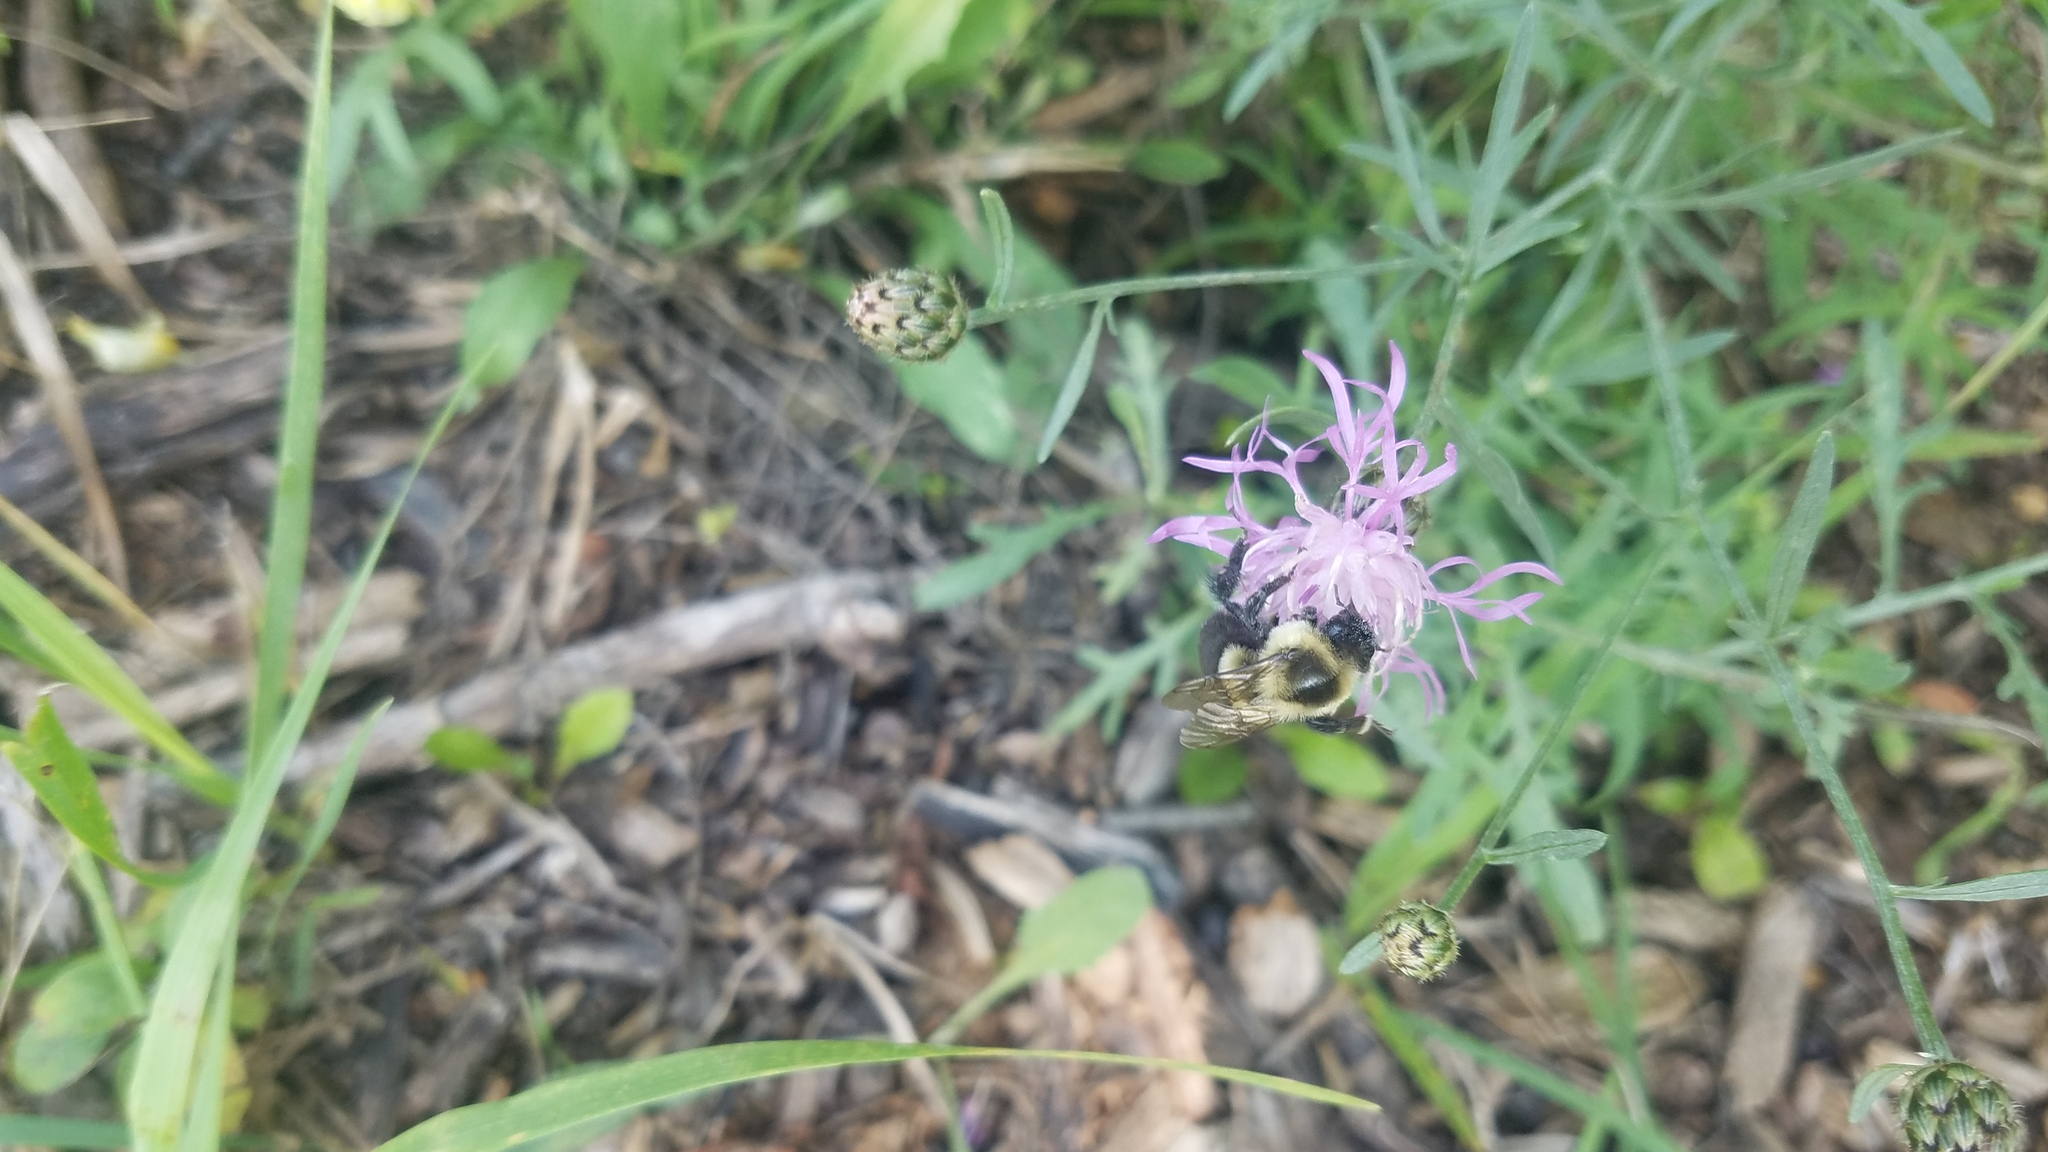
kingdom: Plantae
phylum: Tracheophyta
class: Magnoliopsida
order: Asterales
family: Asteraceae
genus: Centaurea
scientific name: Centaurea stoebe
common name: Spotted knapweed
